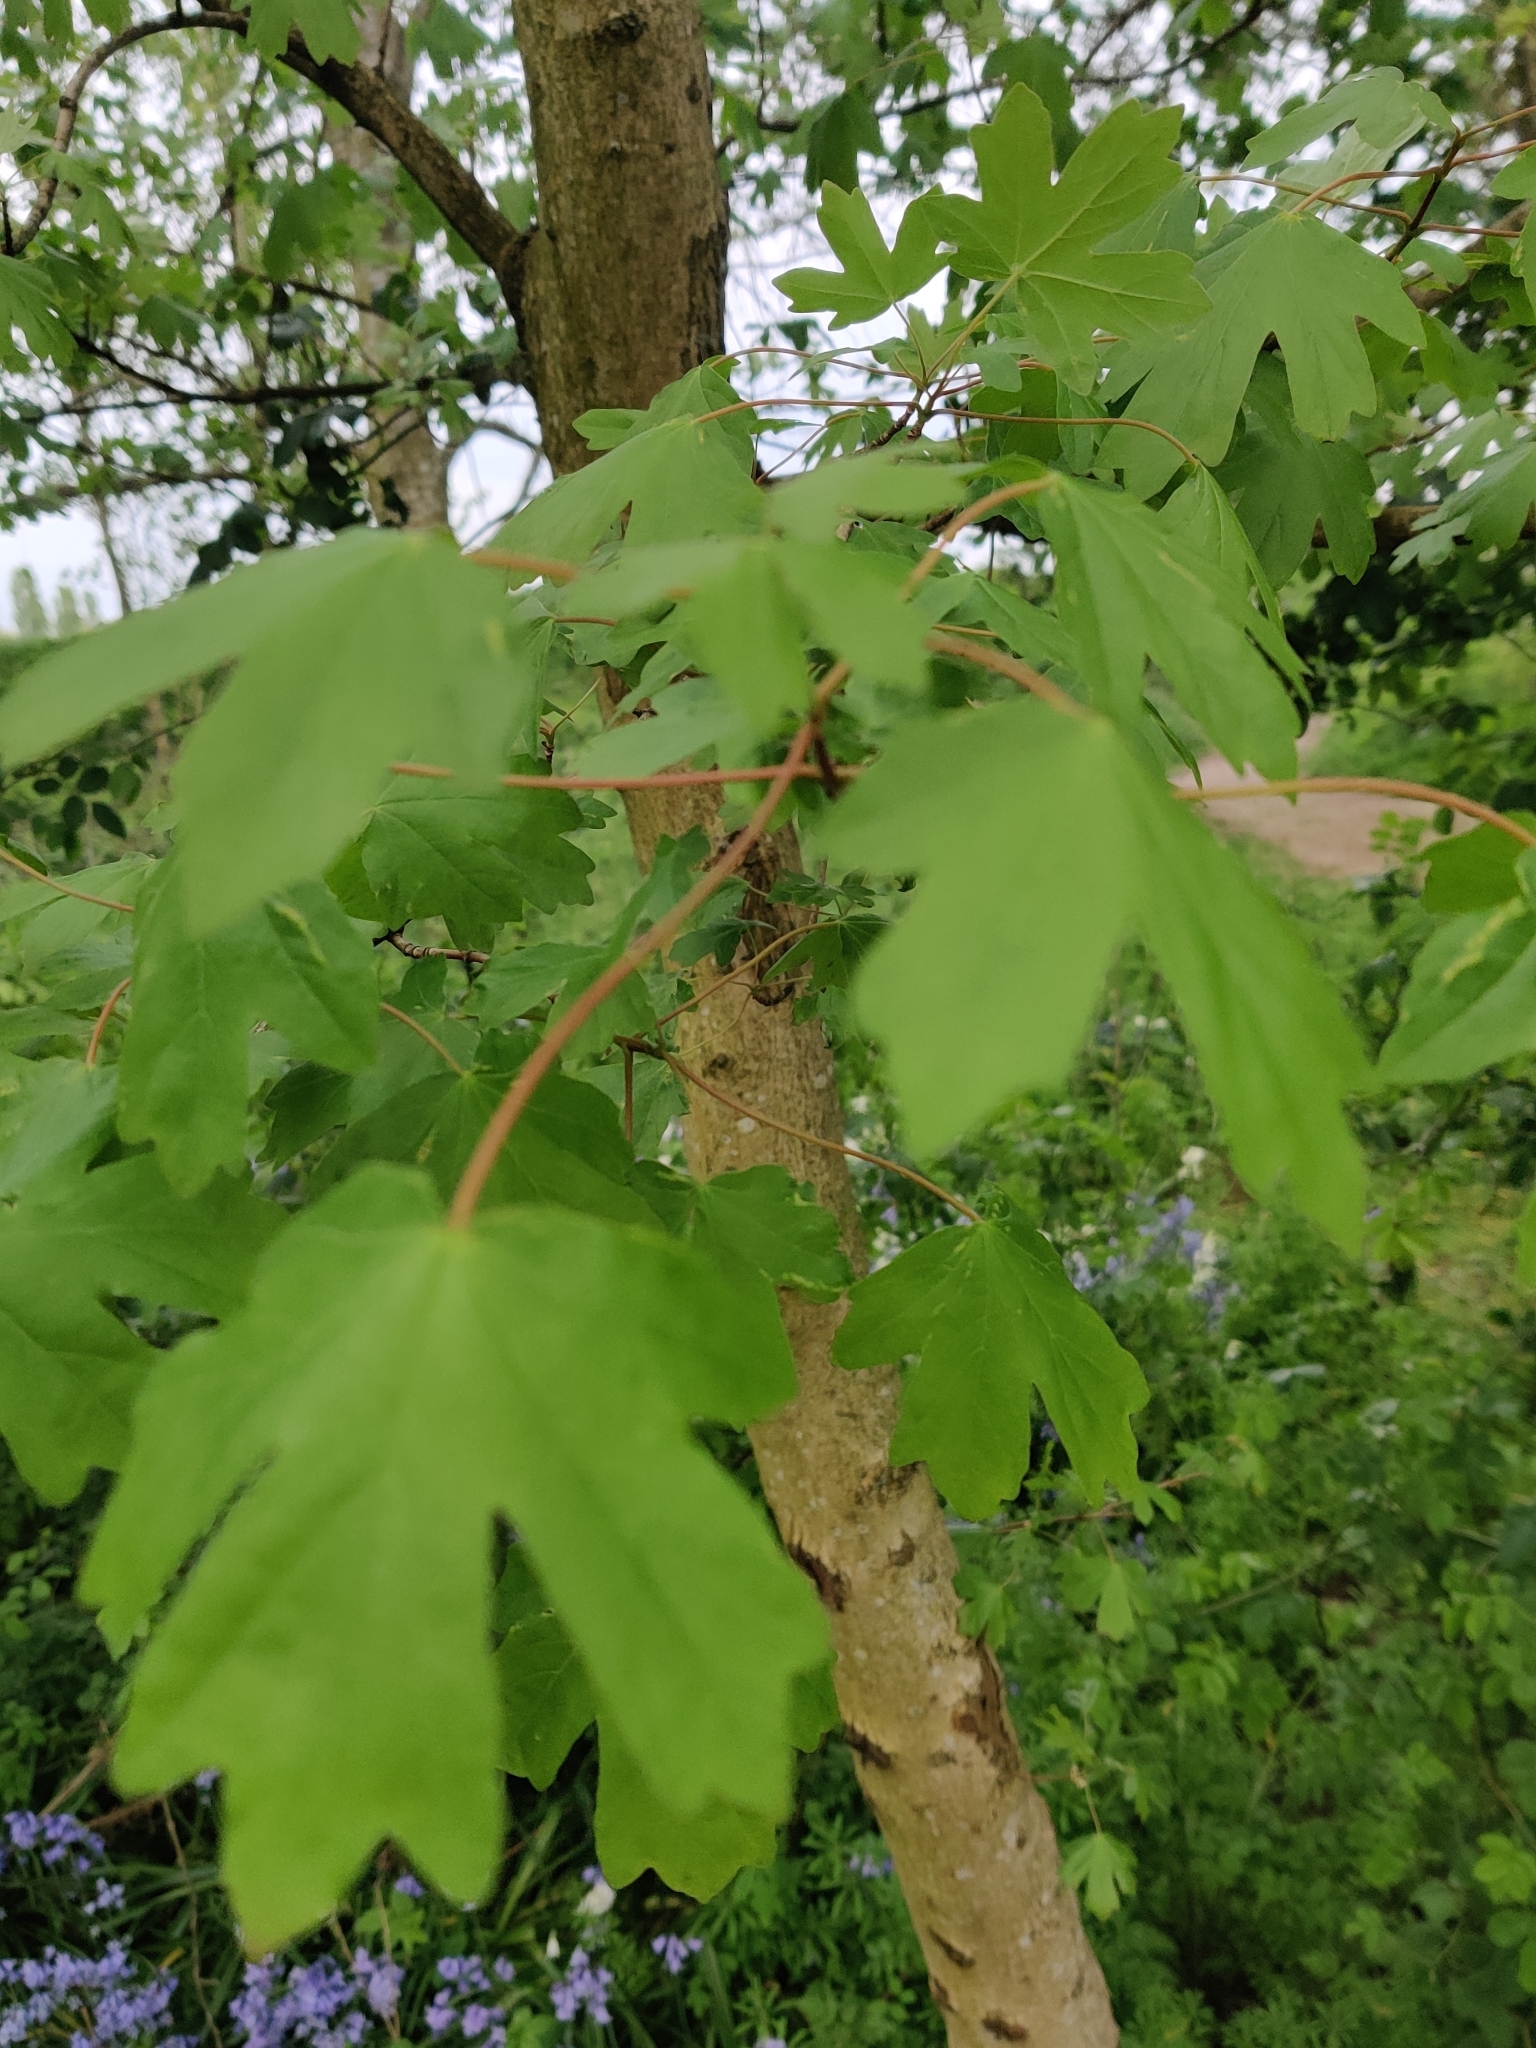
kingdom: Plantae
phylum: Tracheophyta
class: Magnoliopsida
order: Sapindales
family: Sapindaceae
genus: Acer
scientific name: Acer campestre
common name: Field maple
